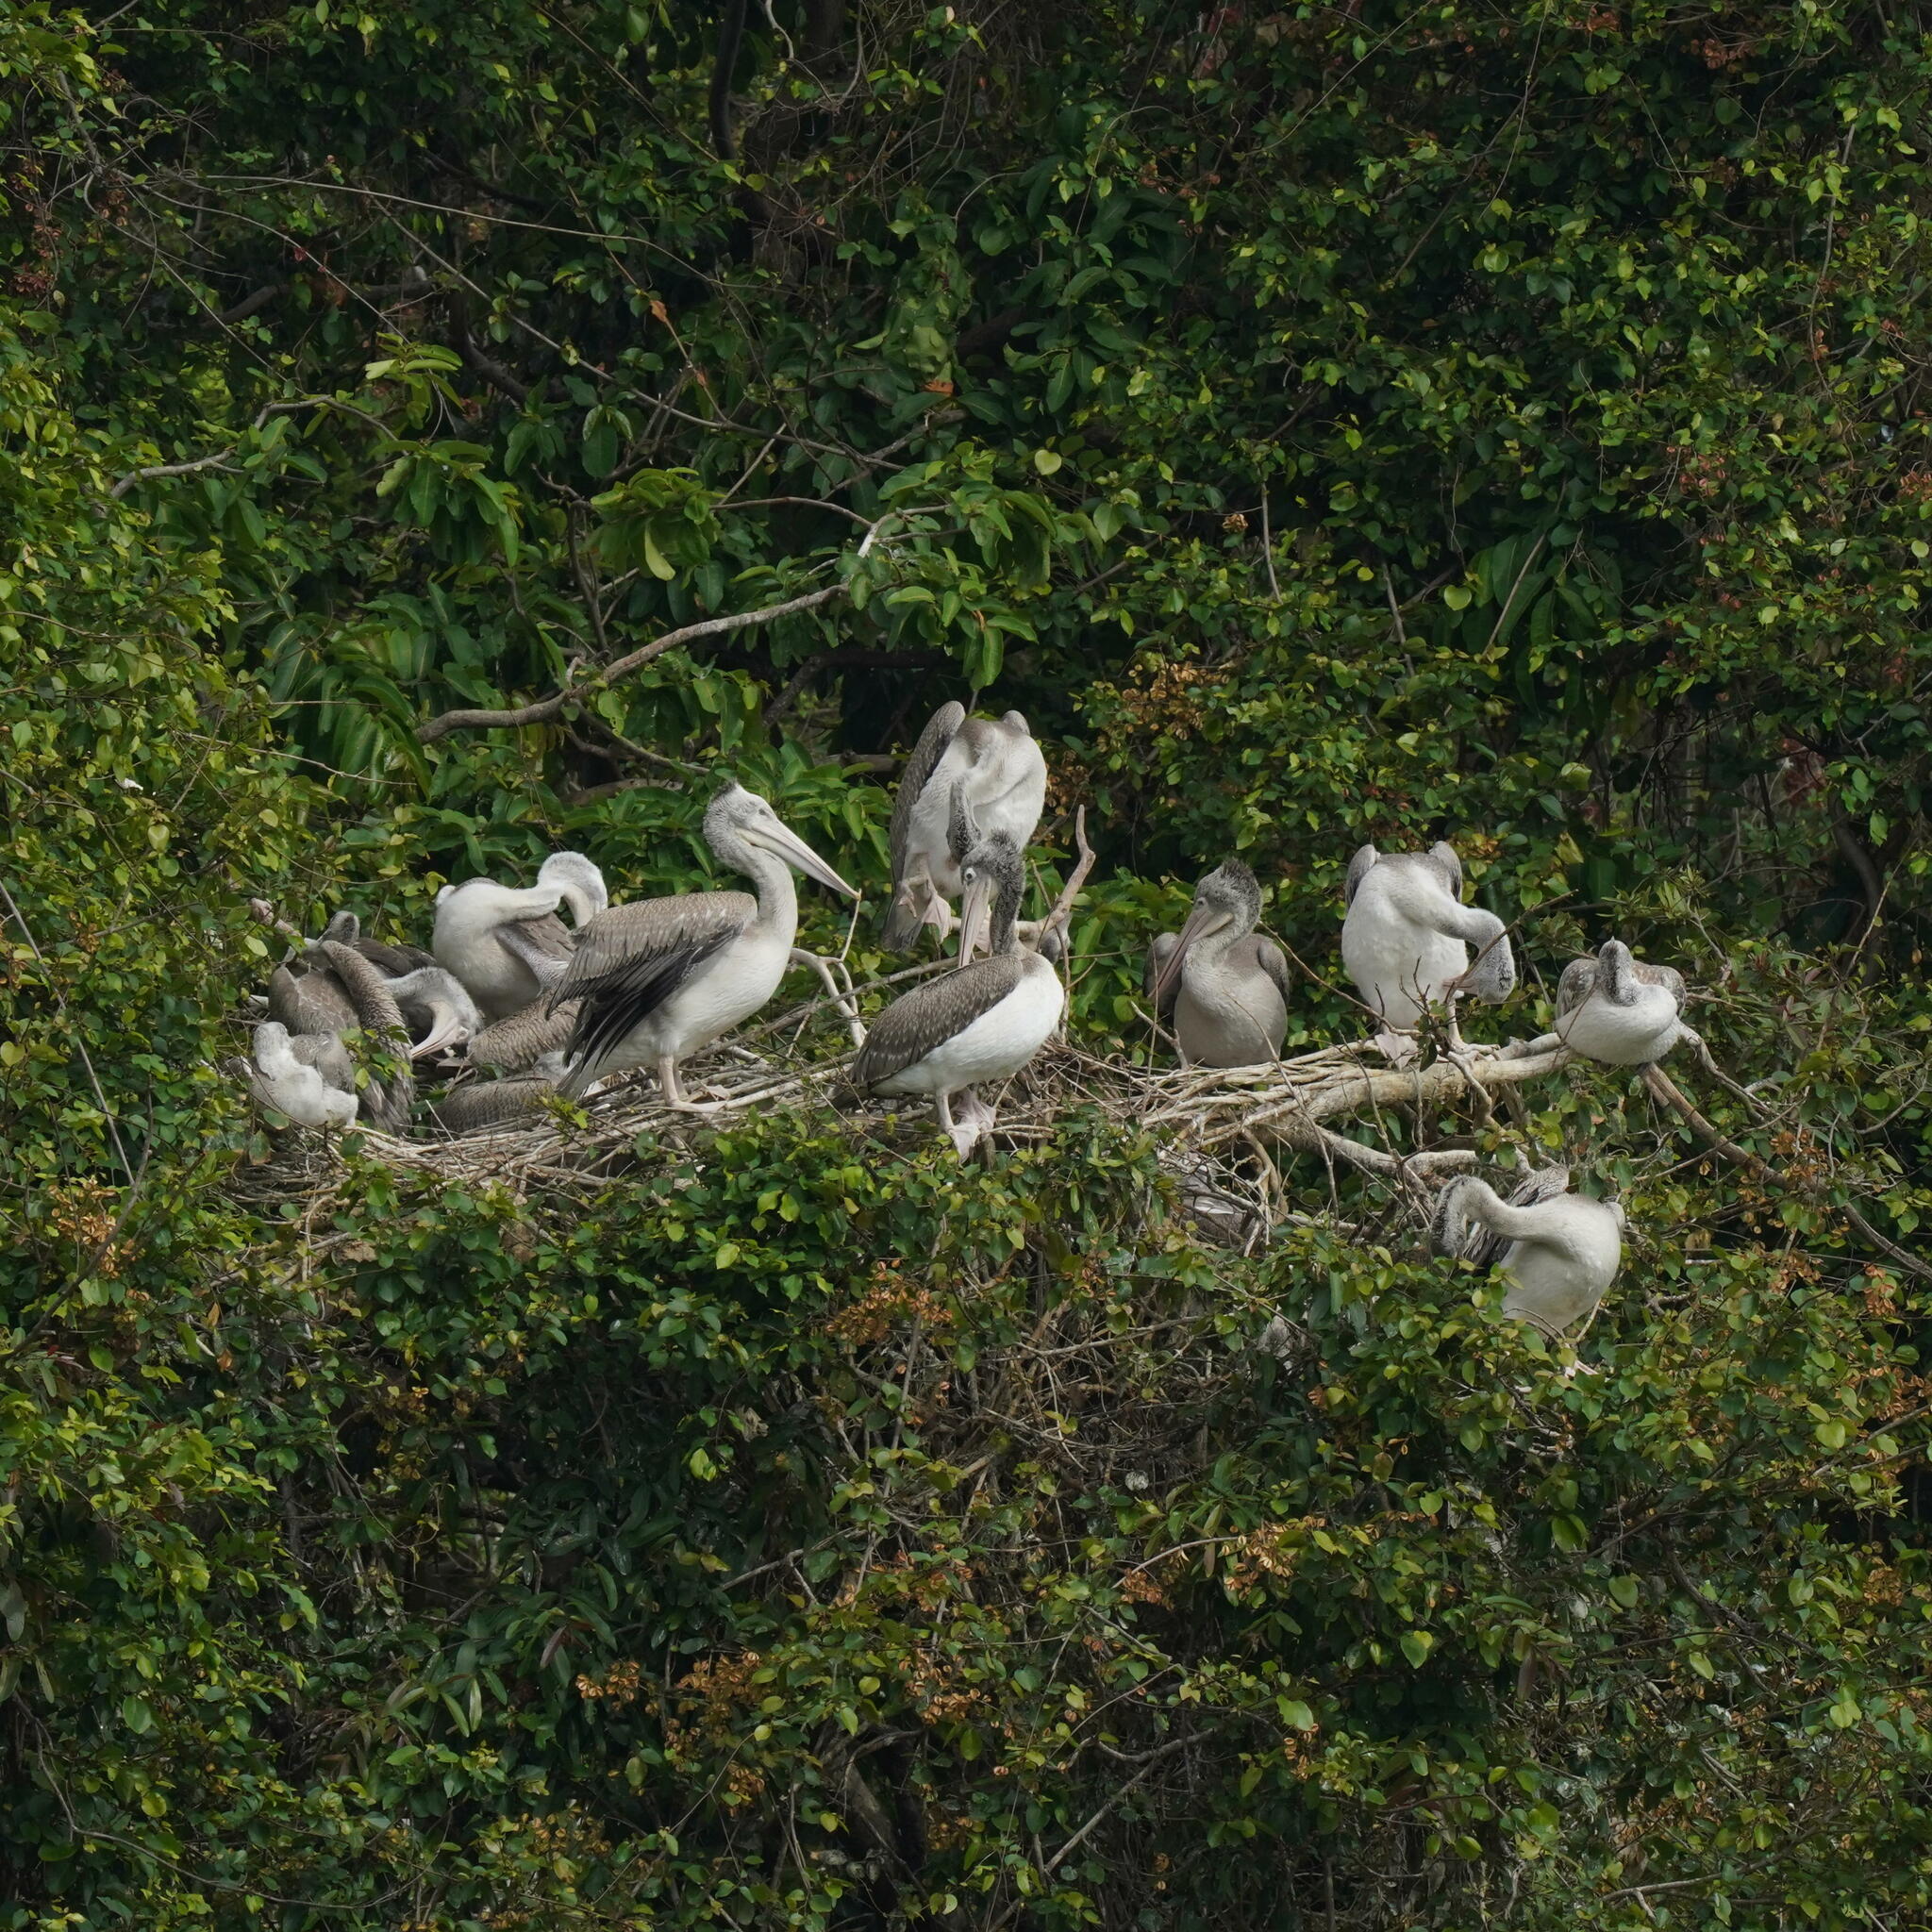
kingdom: Animalia
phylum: Chordata
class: Aves
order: Pelecaniformes
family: Pelecanidae
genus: Pelecanus
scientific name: Pelecanus philippensis
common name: Spot-billed pelican
